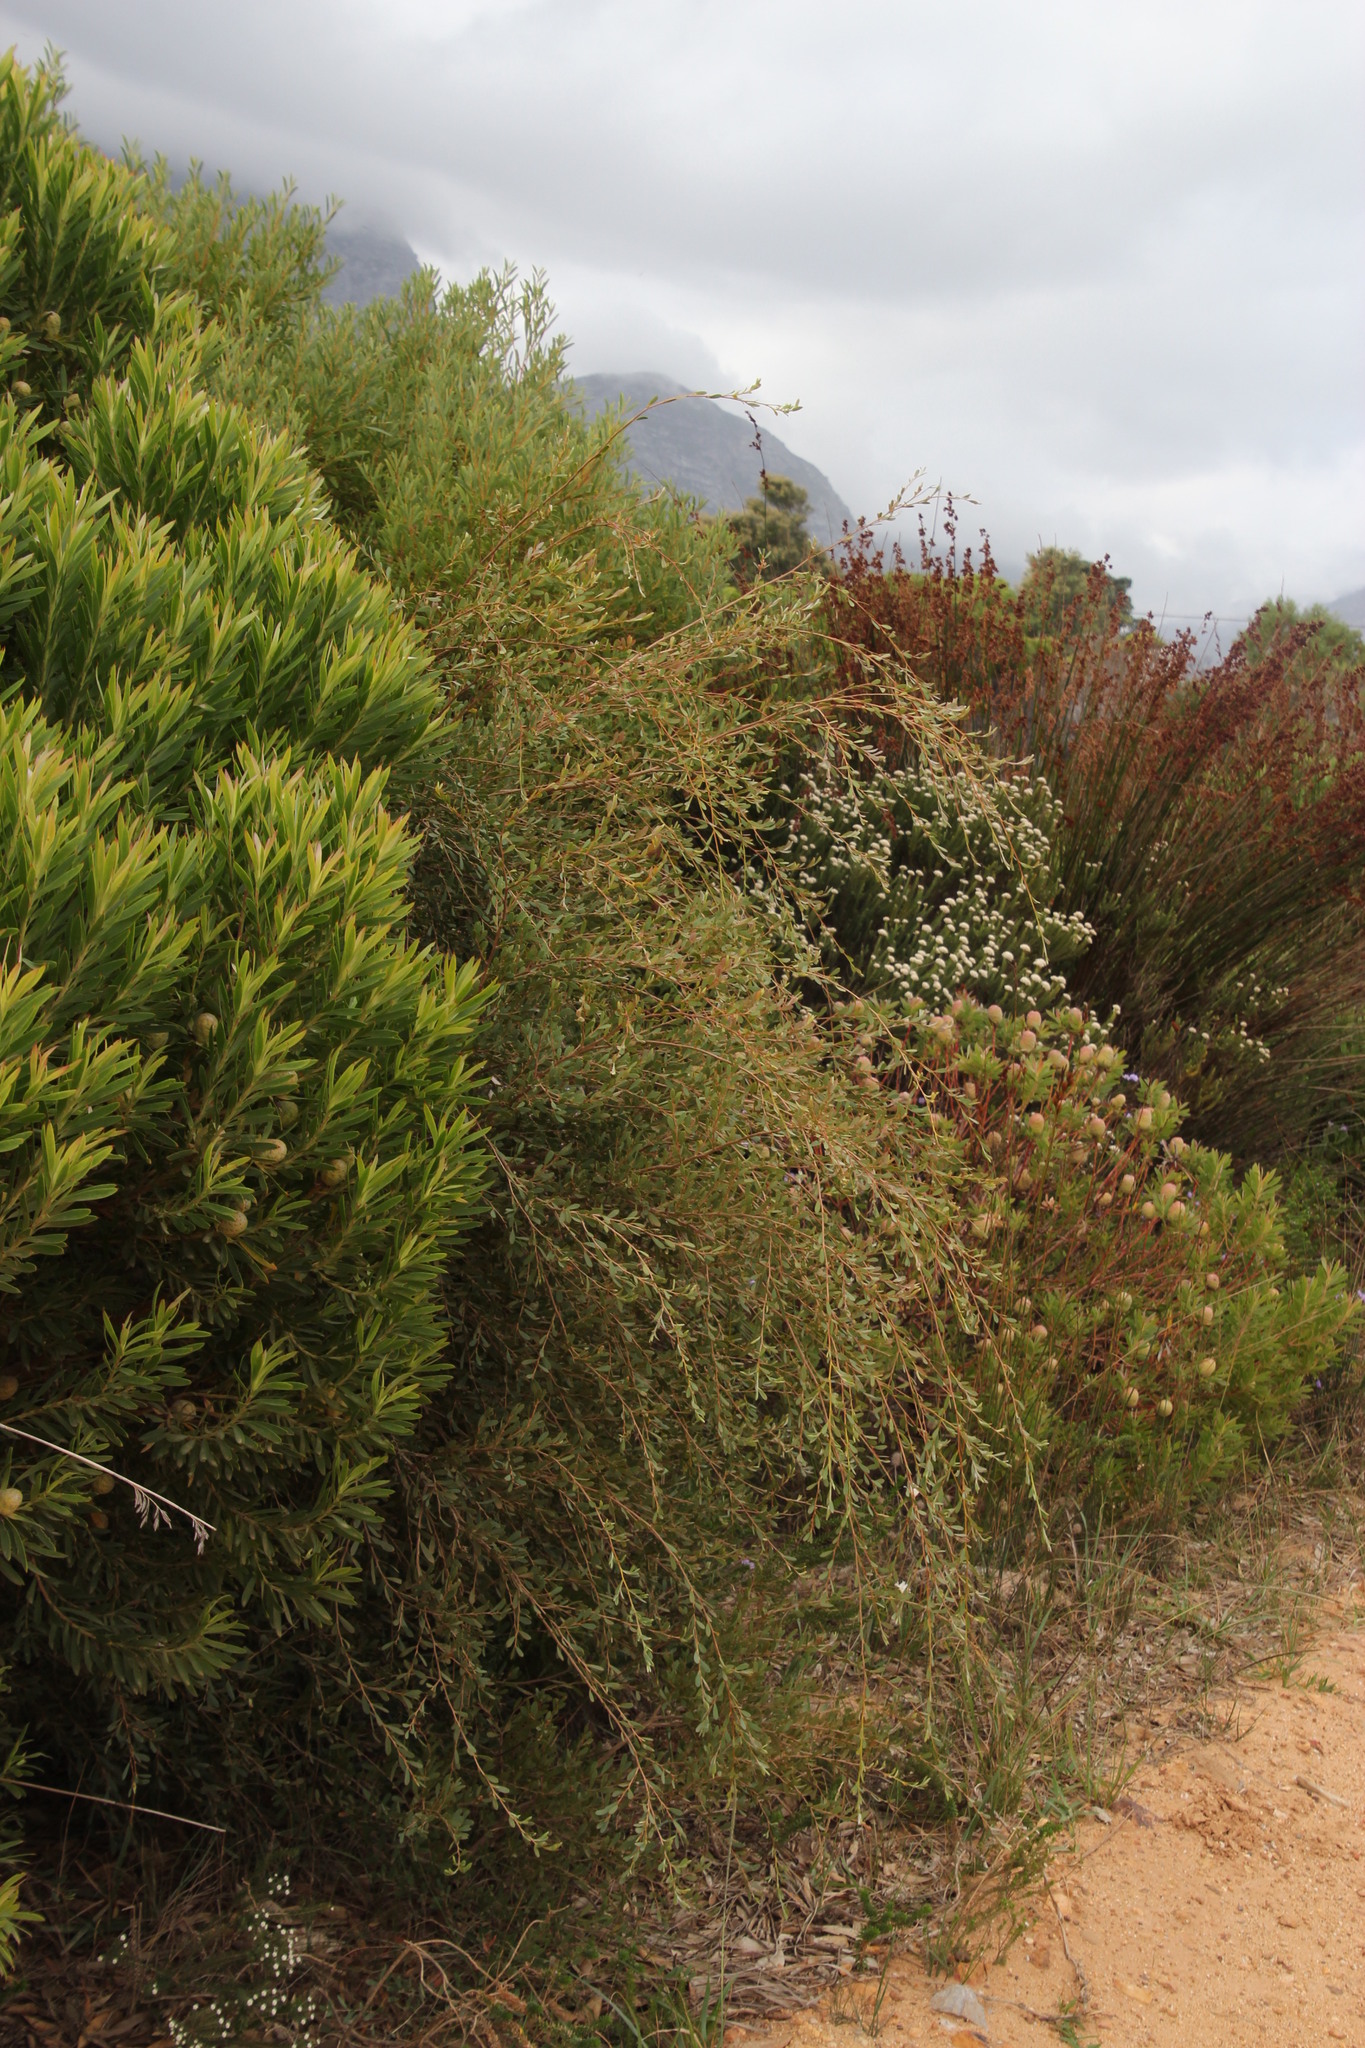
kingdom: Plantae
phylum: Tracheophyta
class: Magnoliopsida
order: Myrtales
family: Myrtaceae
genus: Leptospermum
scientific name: Leptospermum laevigatum
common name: Australian teatree
